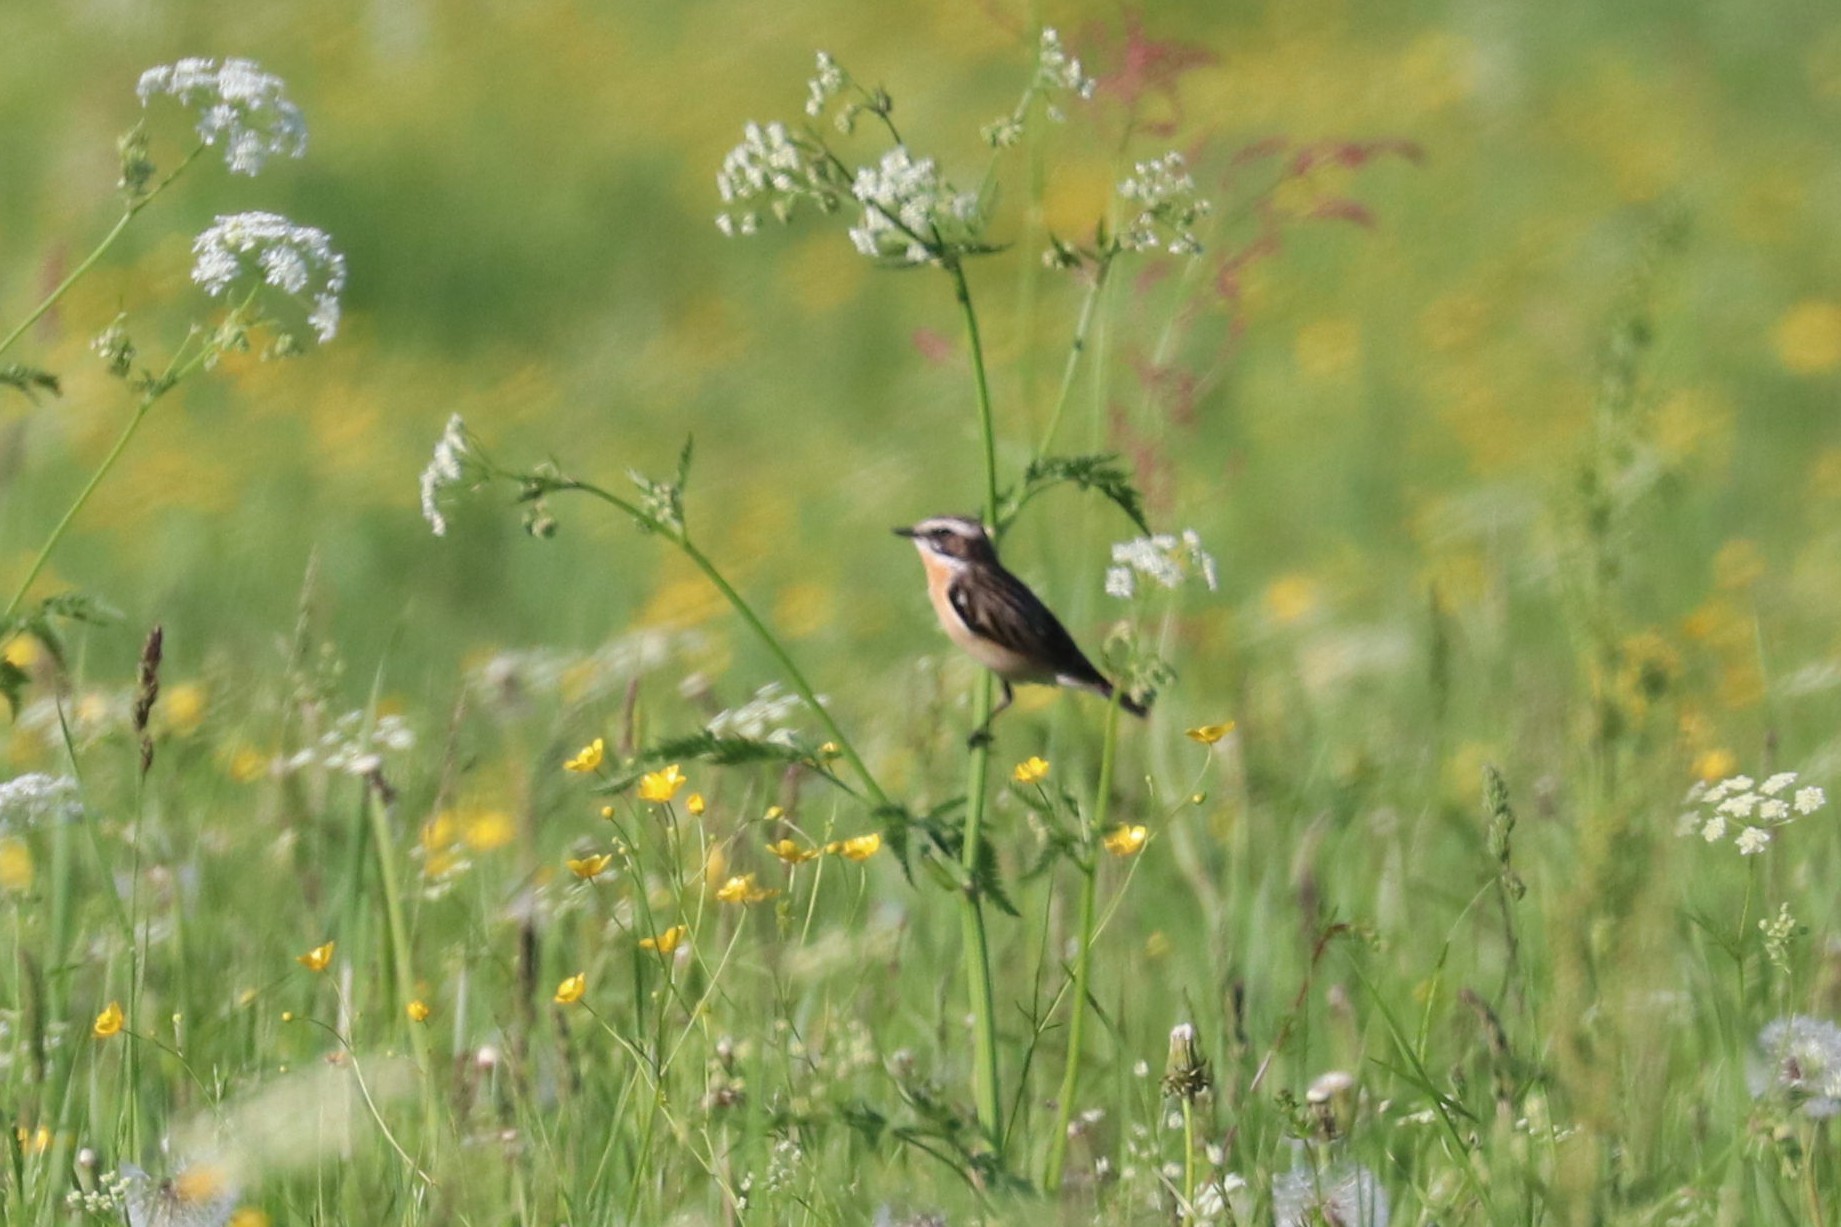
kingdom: Animalia
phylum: Chordata
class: Aves
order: Passeriformes
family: Muscicapidae
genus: Saxicola
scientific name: Saxicola rubetra
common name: Whinchat
